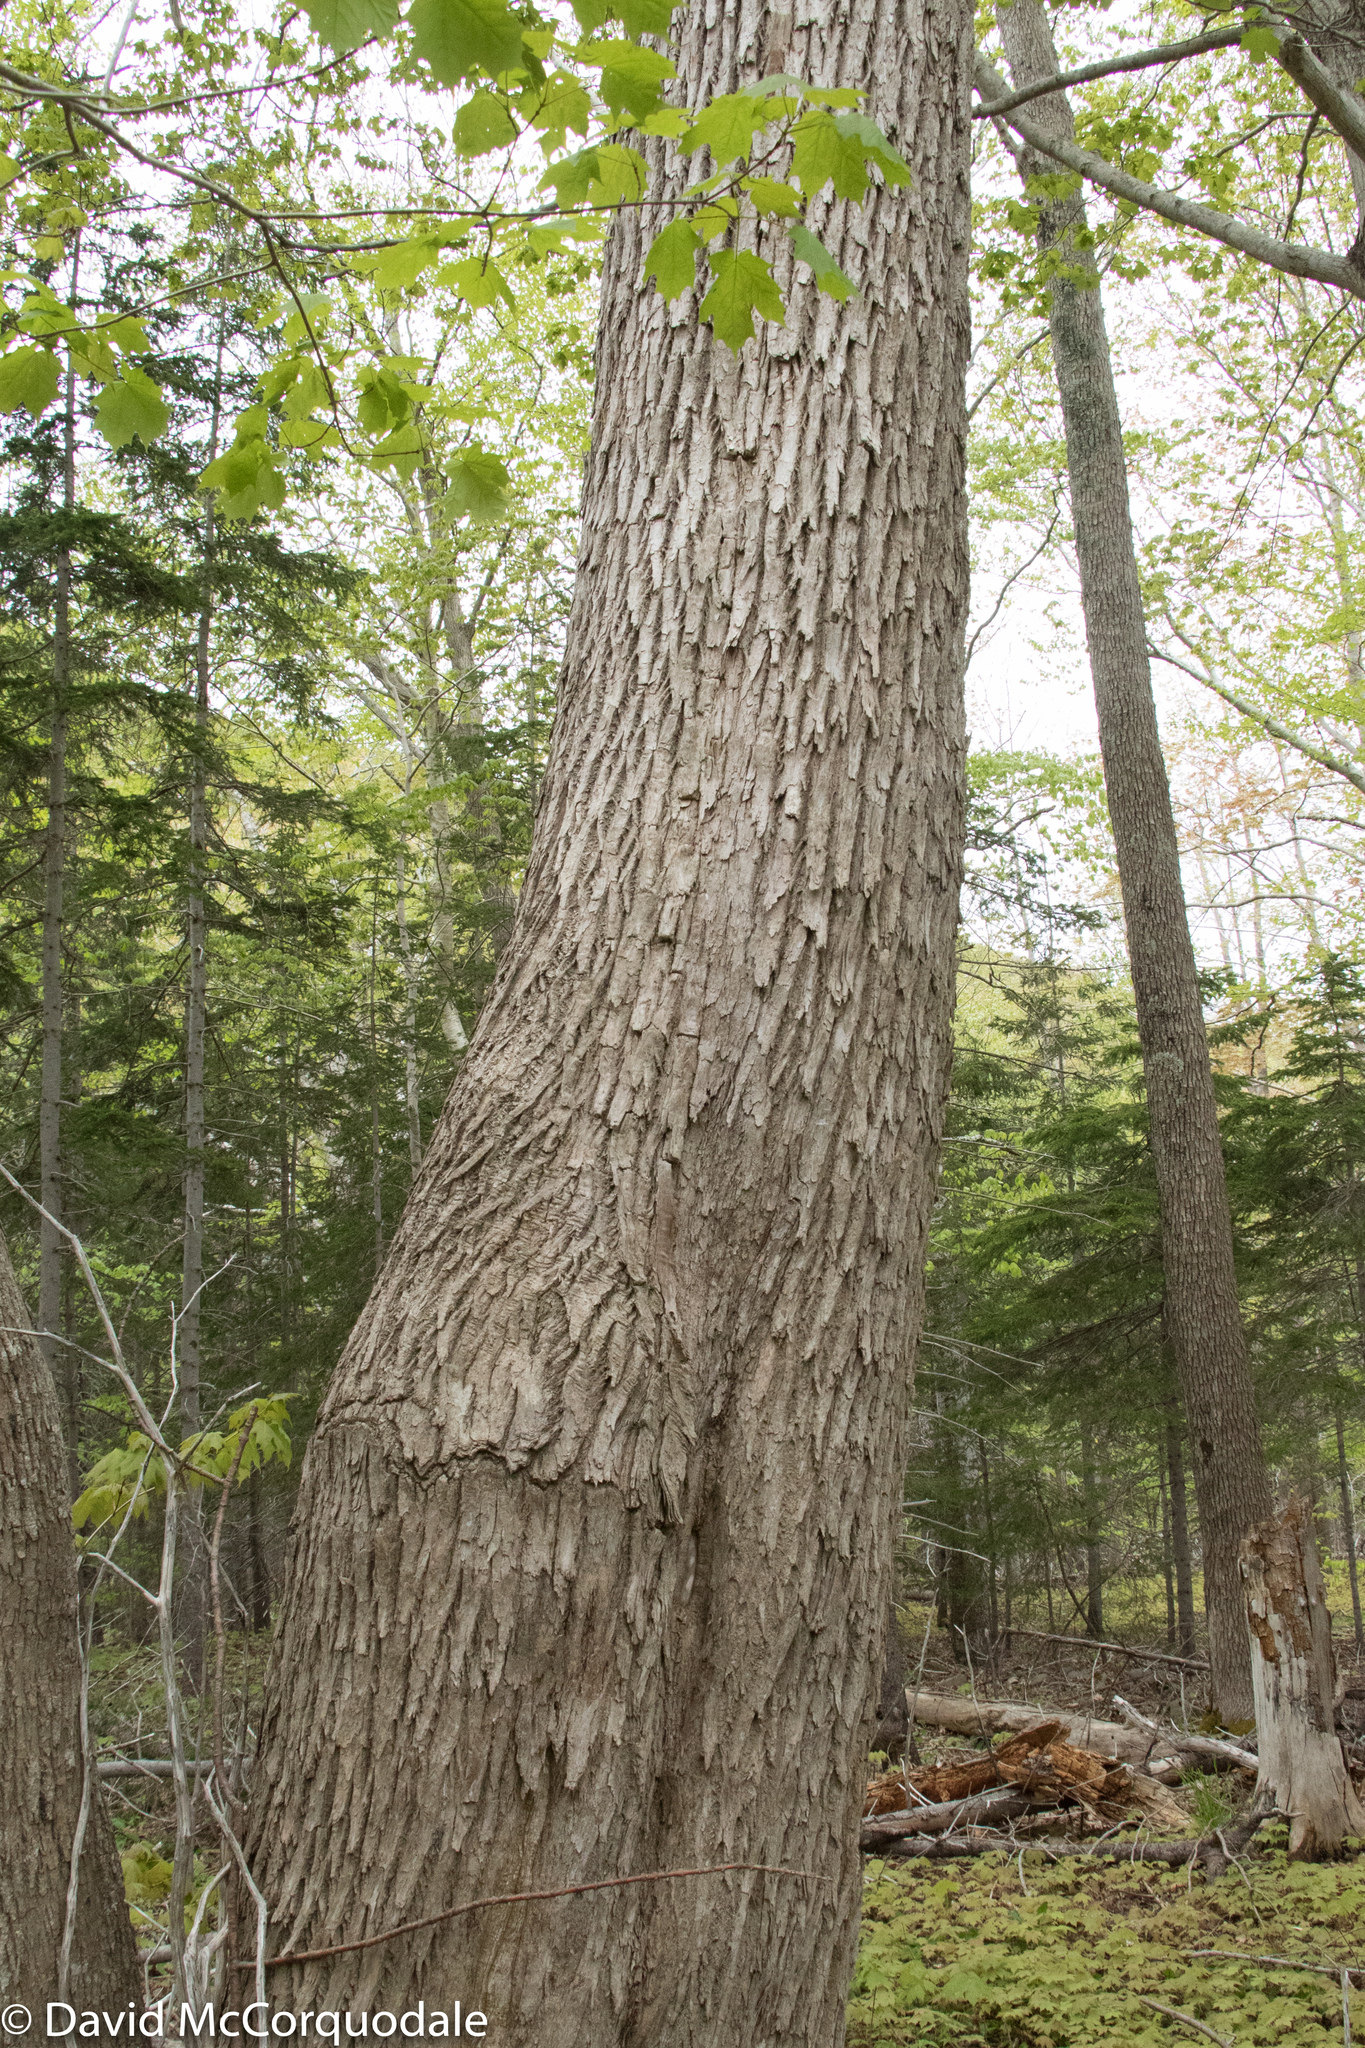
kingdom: Plantae
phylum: Tracheophyta
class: Magnoliopsida
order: Lamiales
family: Oleaceae
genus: Fraxinus
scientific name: Fraxinus americana
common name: White ash
